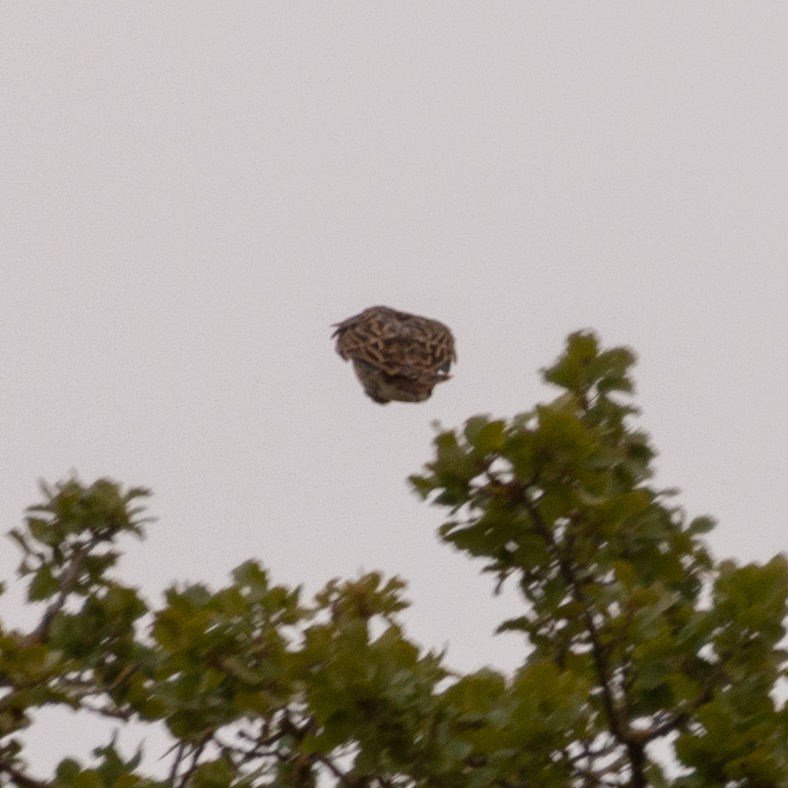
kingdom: Animalia
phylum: Chordata
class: Aves
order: Passeriformes
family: Alaudidae
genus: Lullula
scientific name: Lullula arborea
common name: Woodlark
